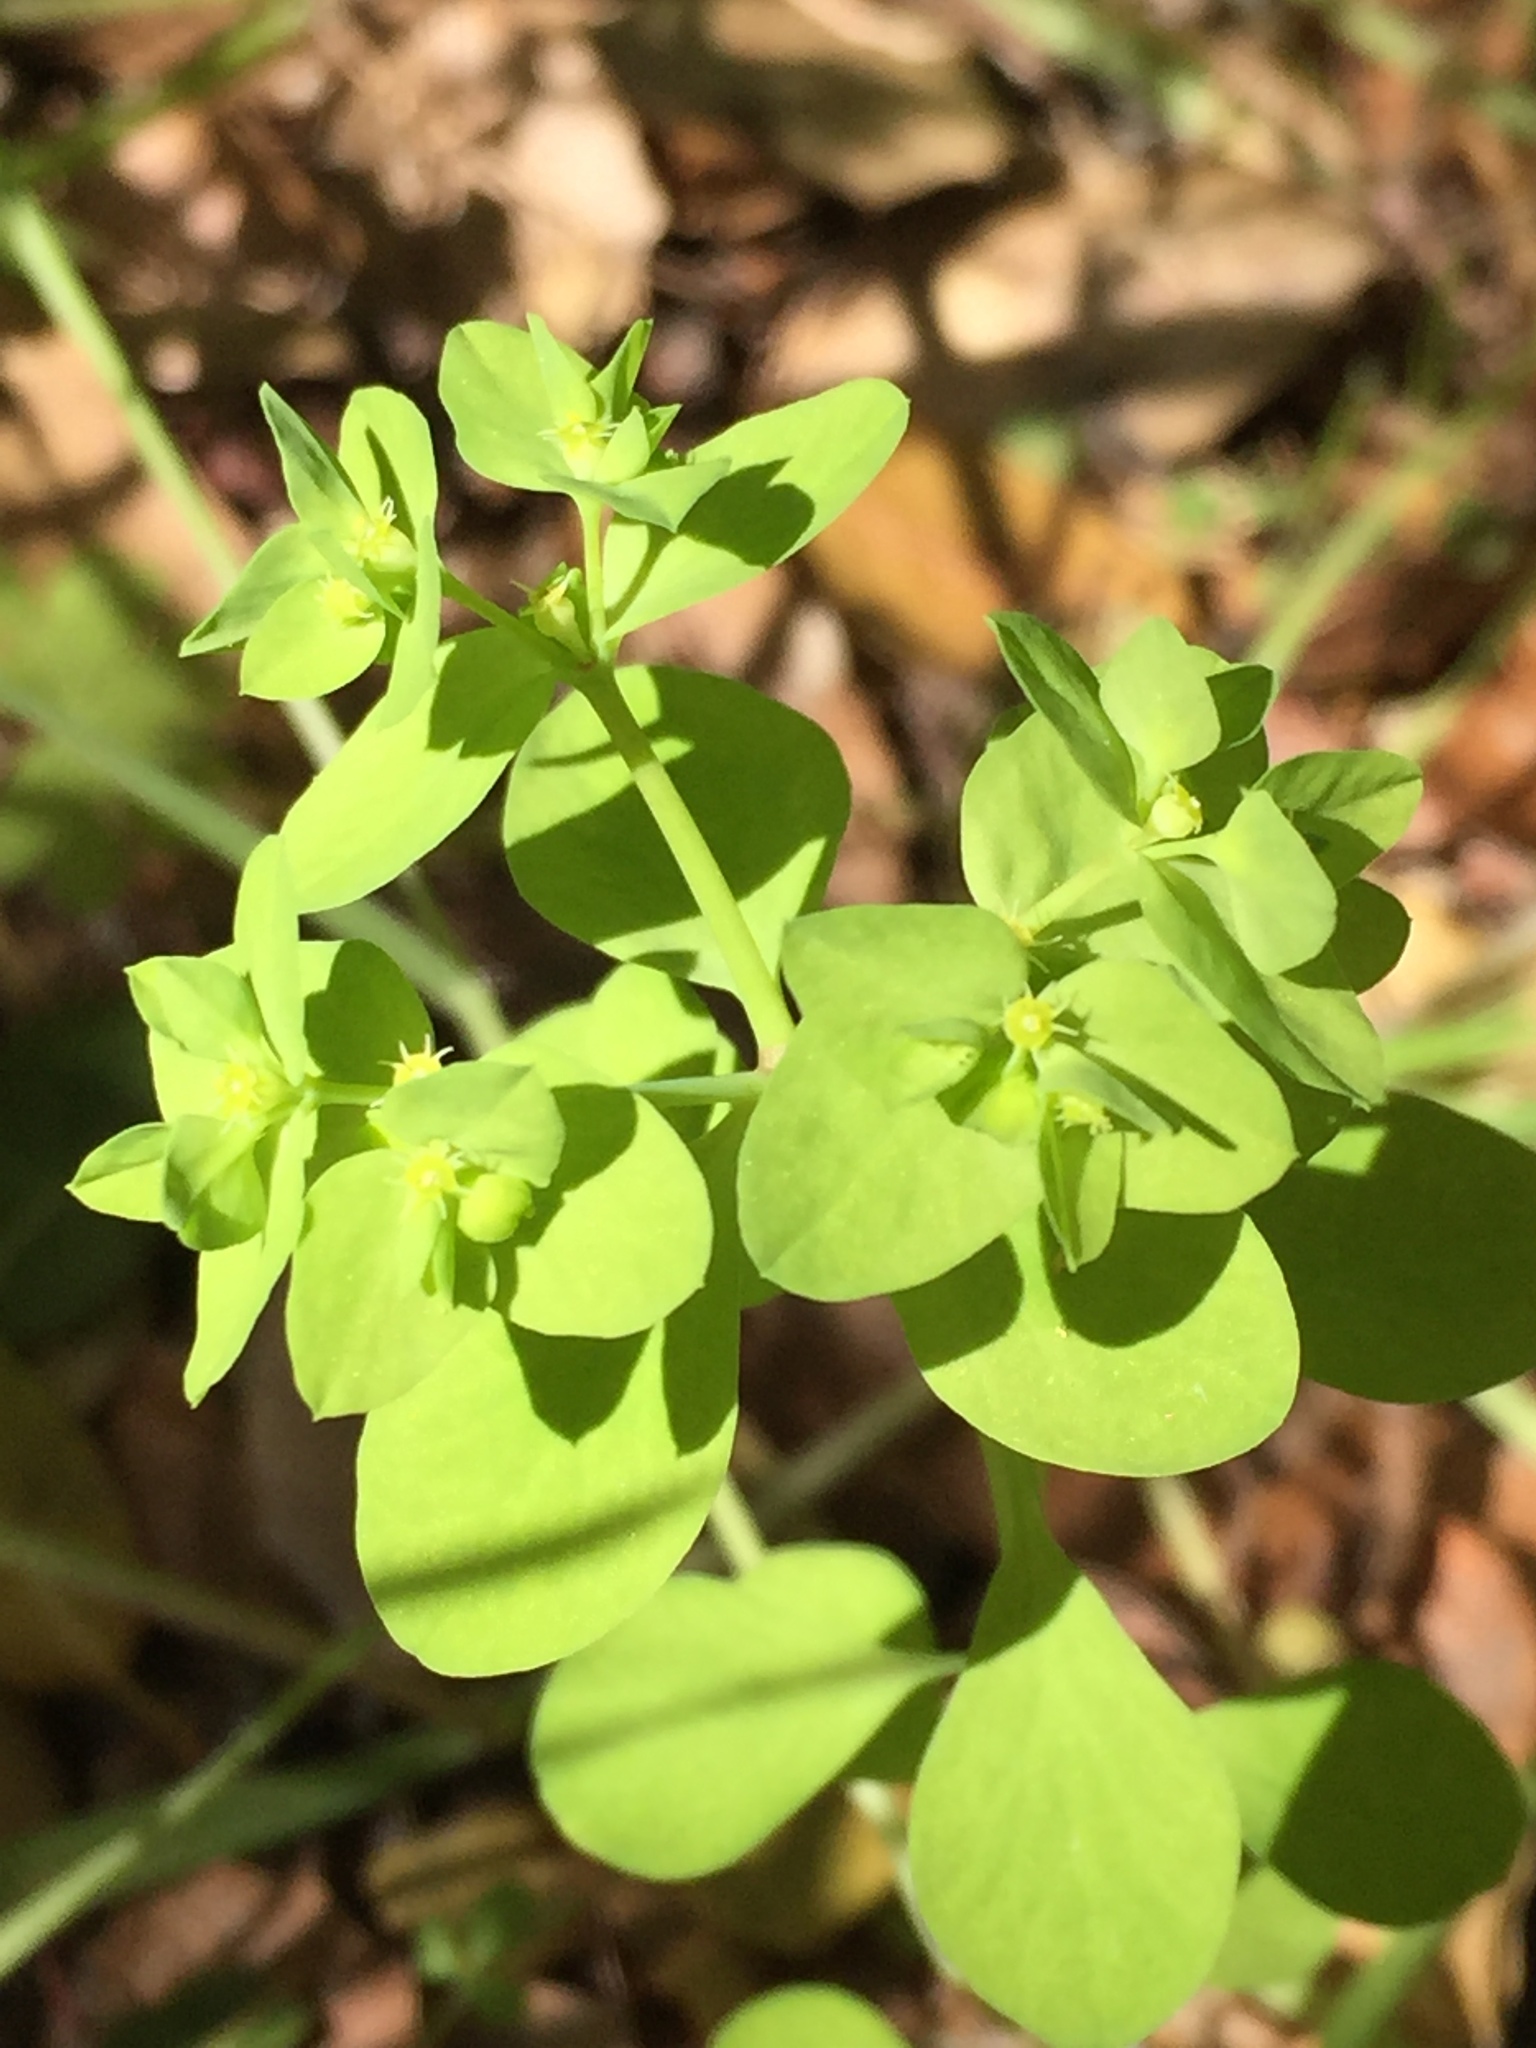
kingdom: Plantae
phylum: Tracheophyta
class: Magnoliopsida
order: Malpighiales
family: Euphorbiaceae
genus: Euphorbia
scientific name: Euphorbia peplus
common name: Petty spurge
